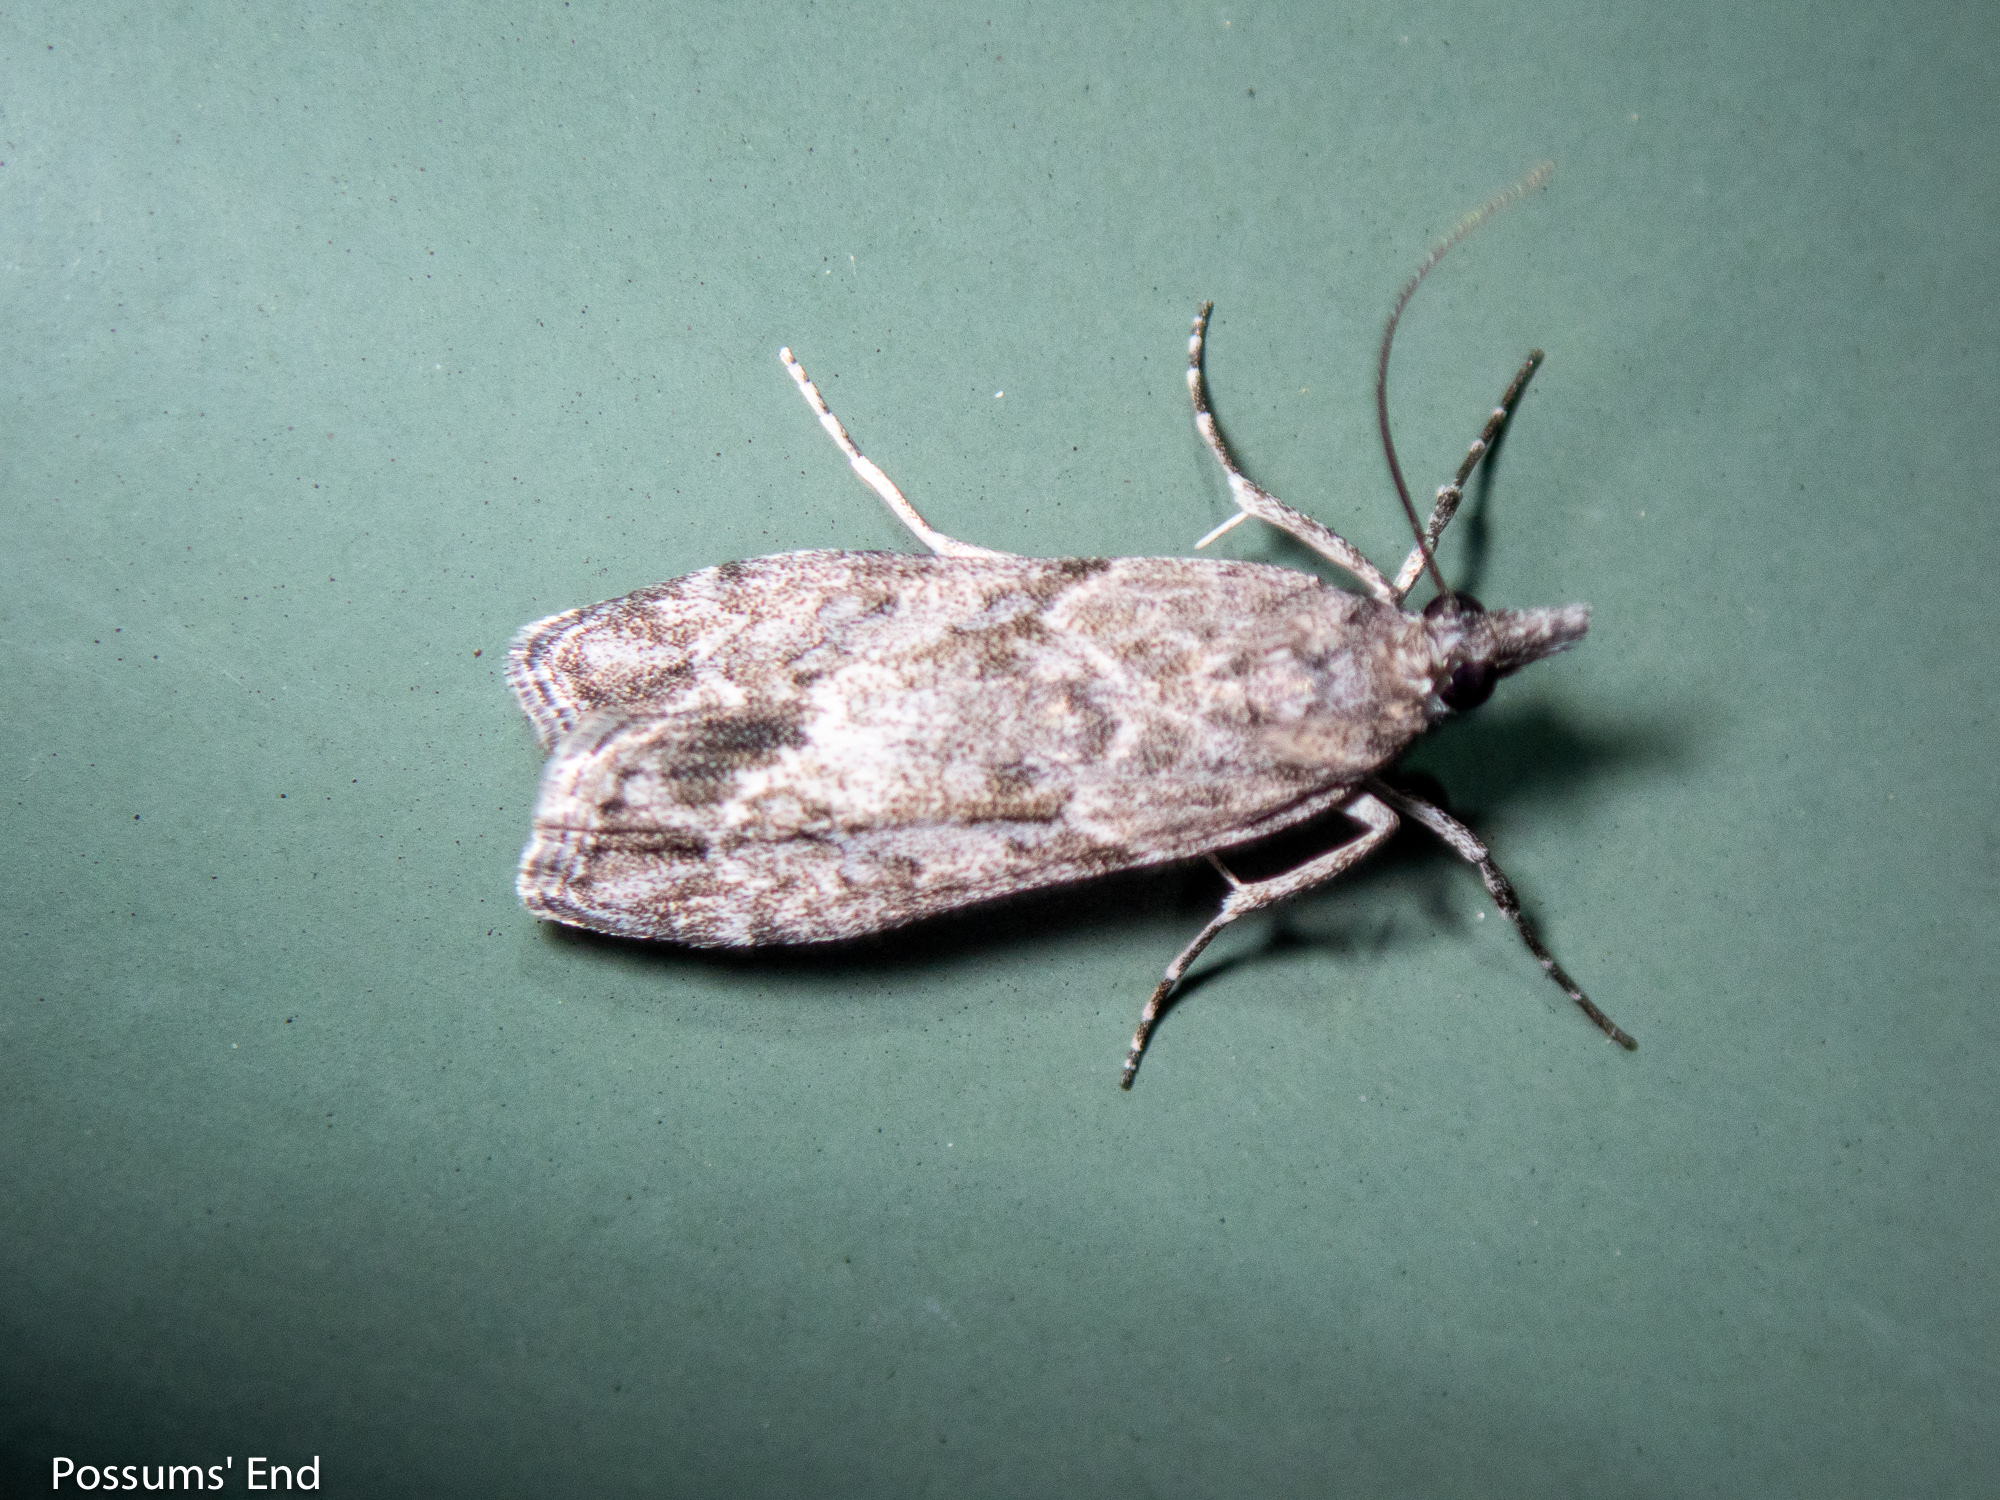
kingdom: Animalia
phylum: Arthropoda
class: Insecta
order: Lepidoptera
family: Crambidae
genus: Eudonia
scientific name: Eudonia rakaiensis
